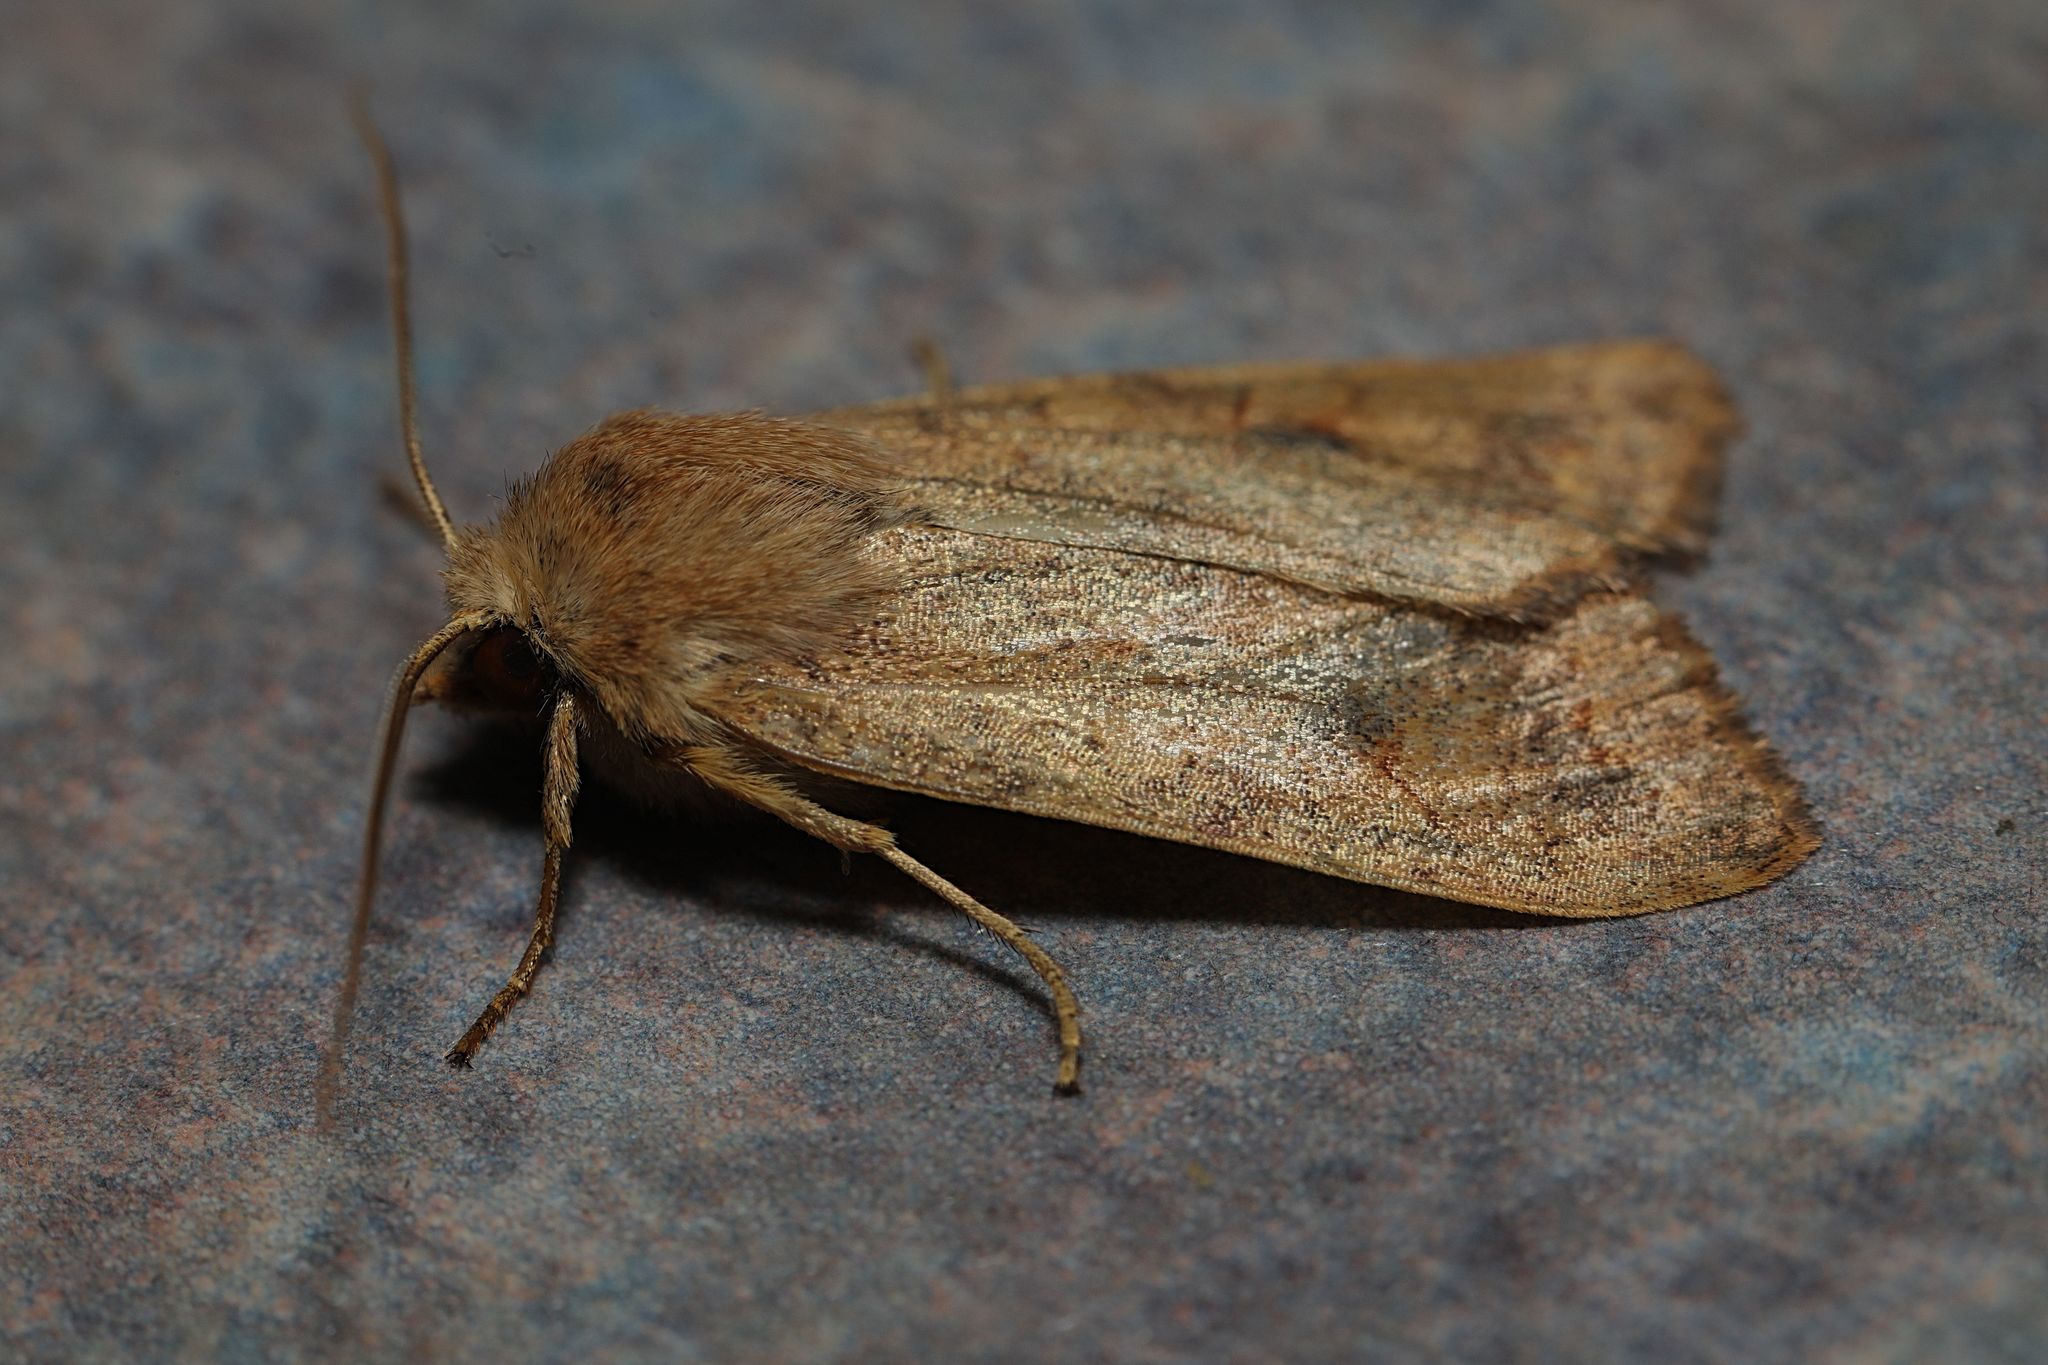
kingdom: Animalia
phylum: Arthropoda
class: Insecta
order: Lepidoptera
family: Noctuidae
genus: Sunira
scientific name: Sunira circellaris
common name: Brick
